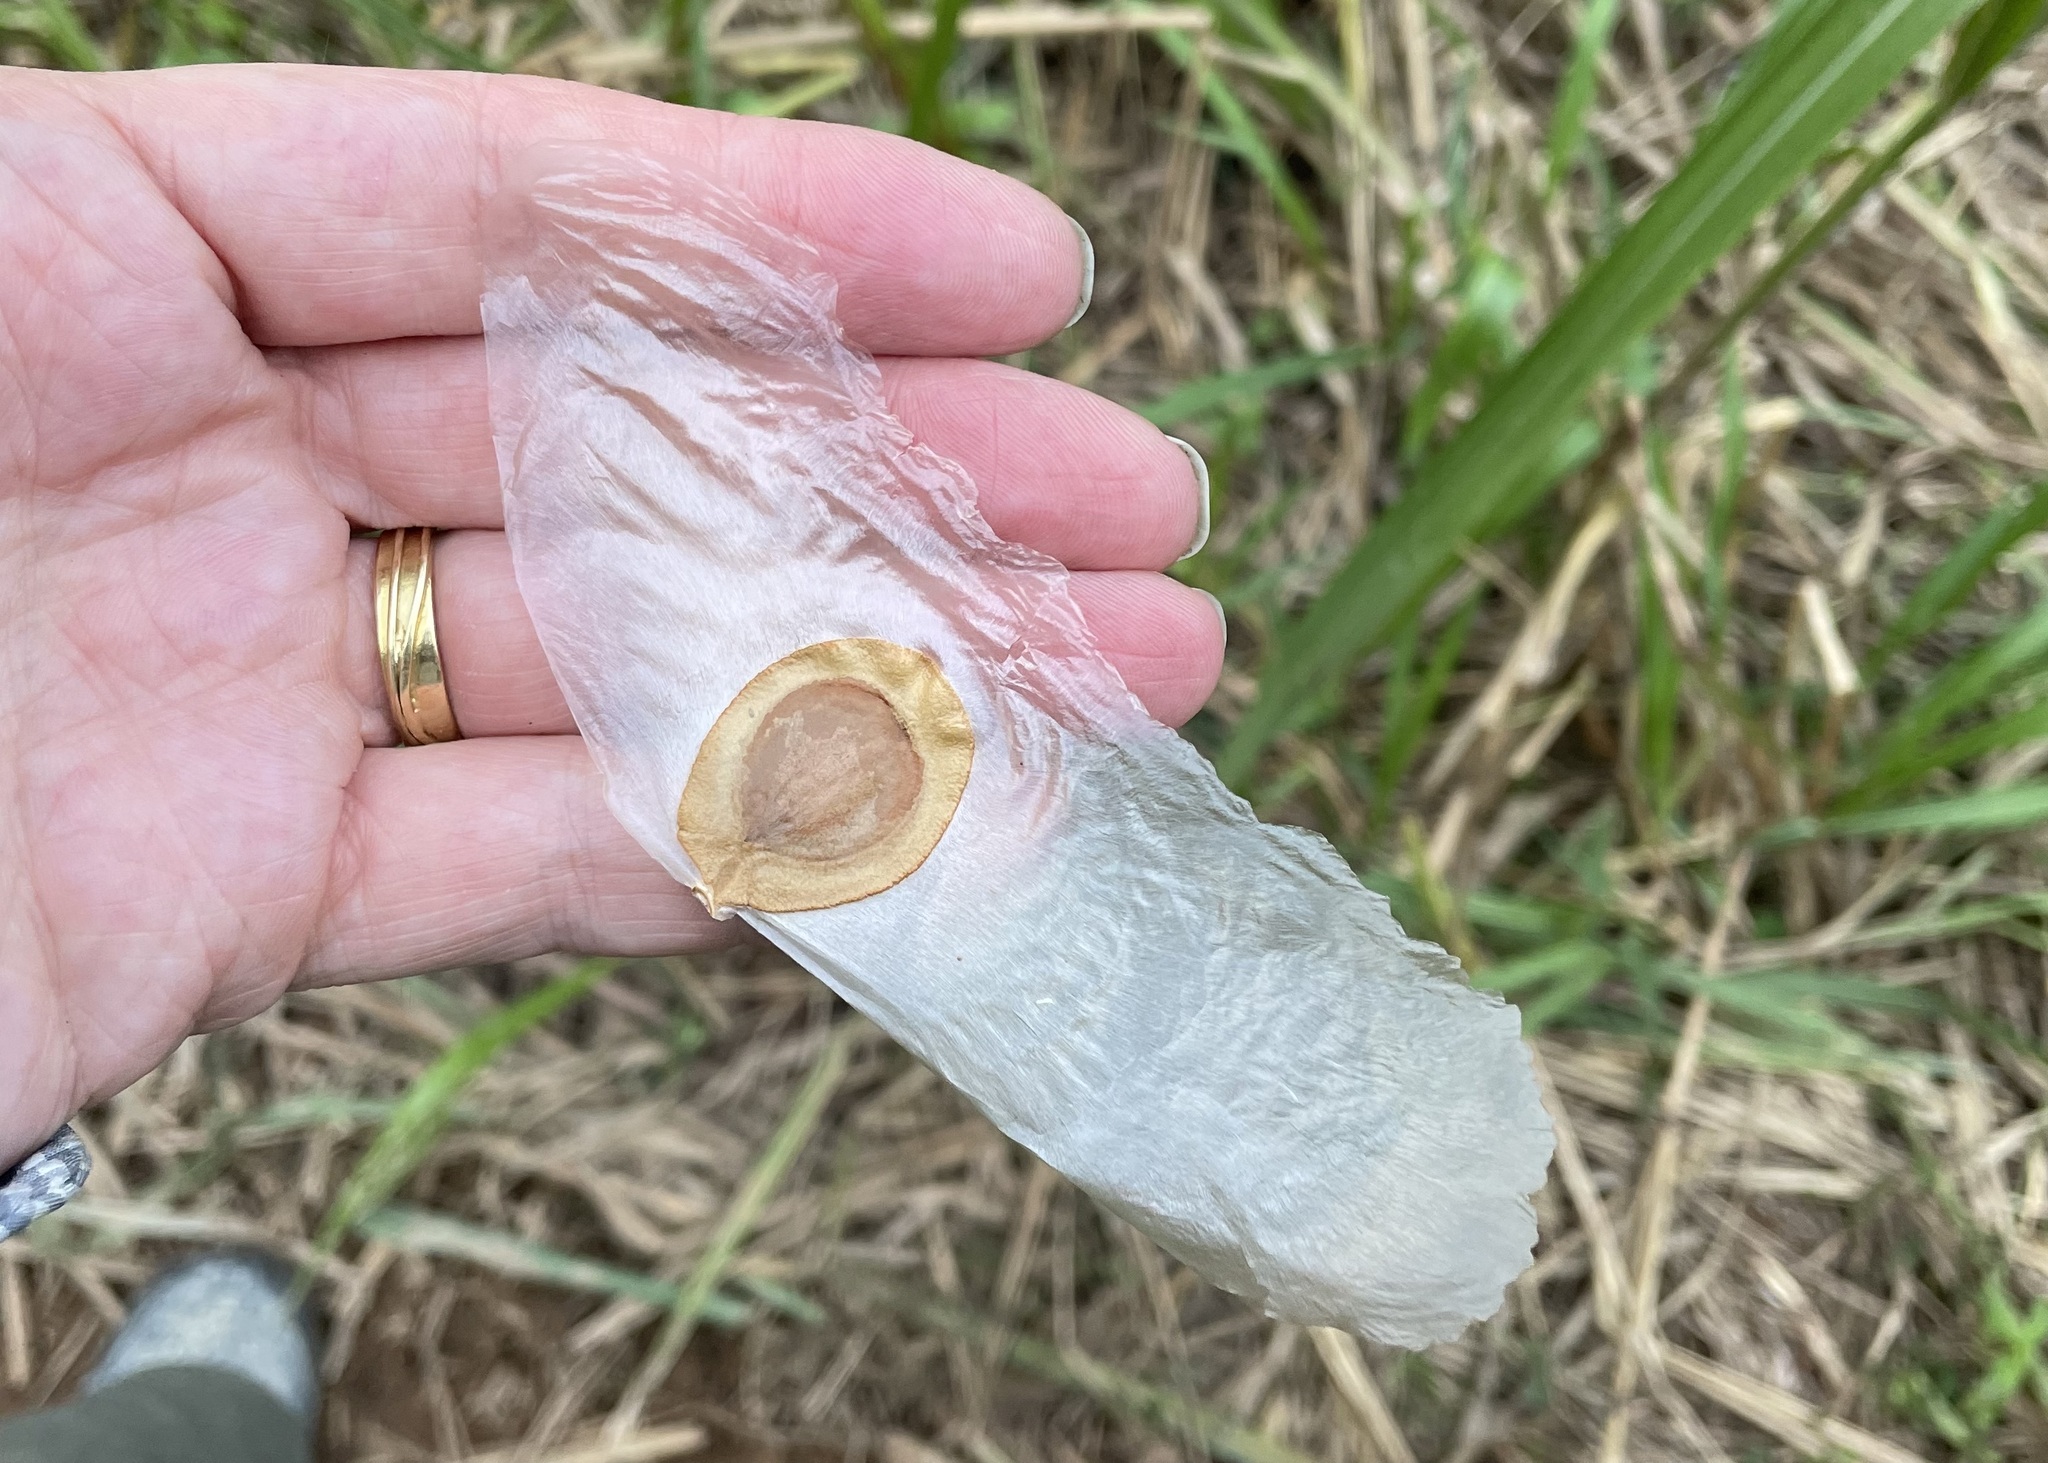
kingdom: Plantae
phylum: Tracheophyta
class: Magnoliopsida
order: Cucurbitales
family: Cucurbitaceae
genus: Alsomitra
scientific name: Alsomitra macrocarpa
